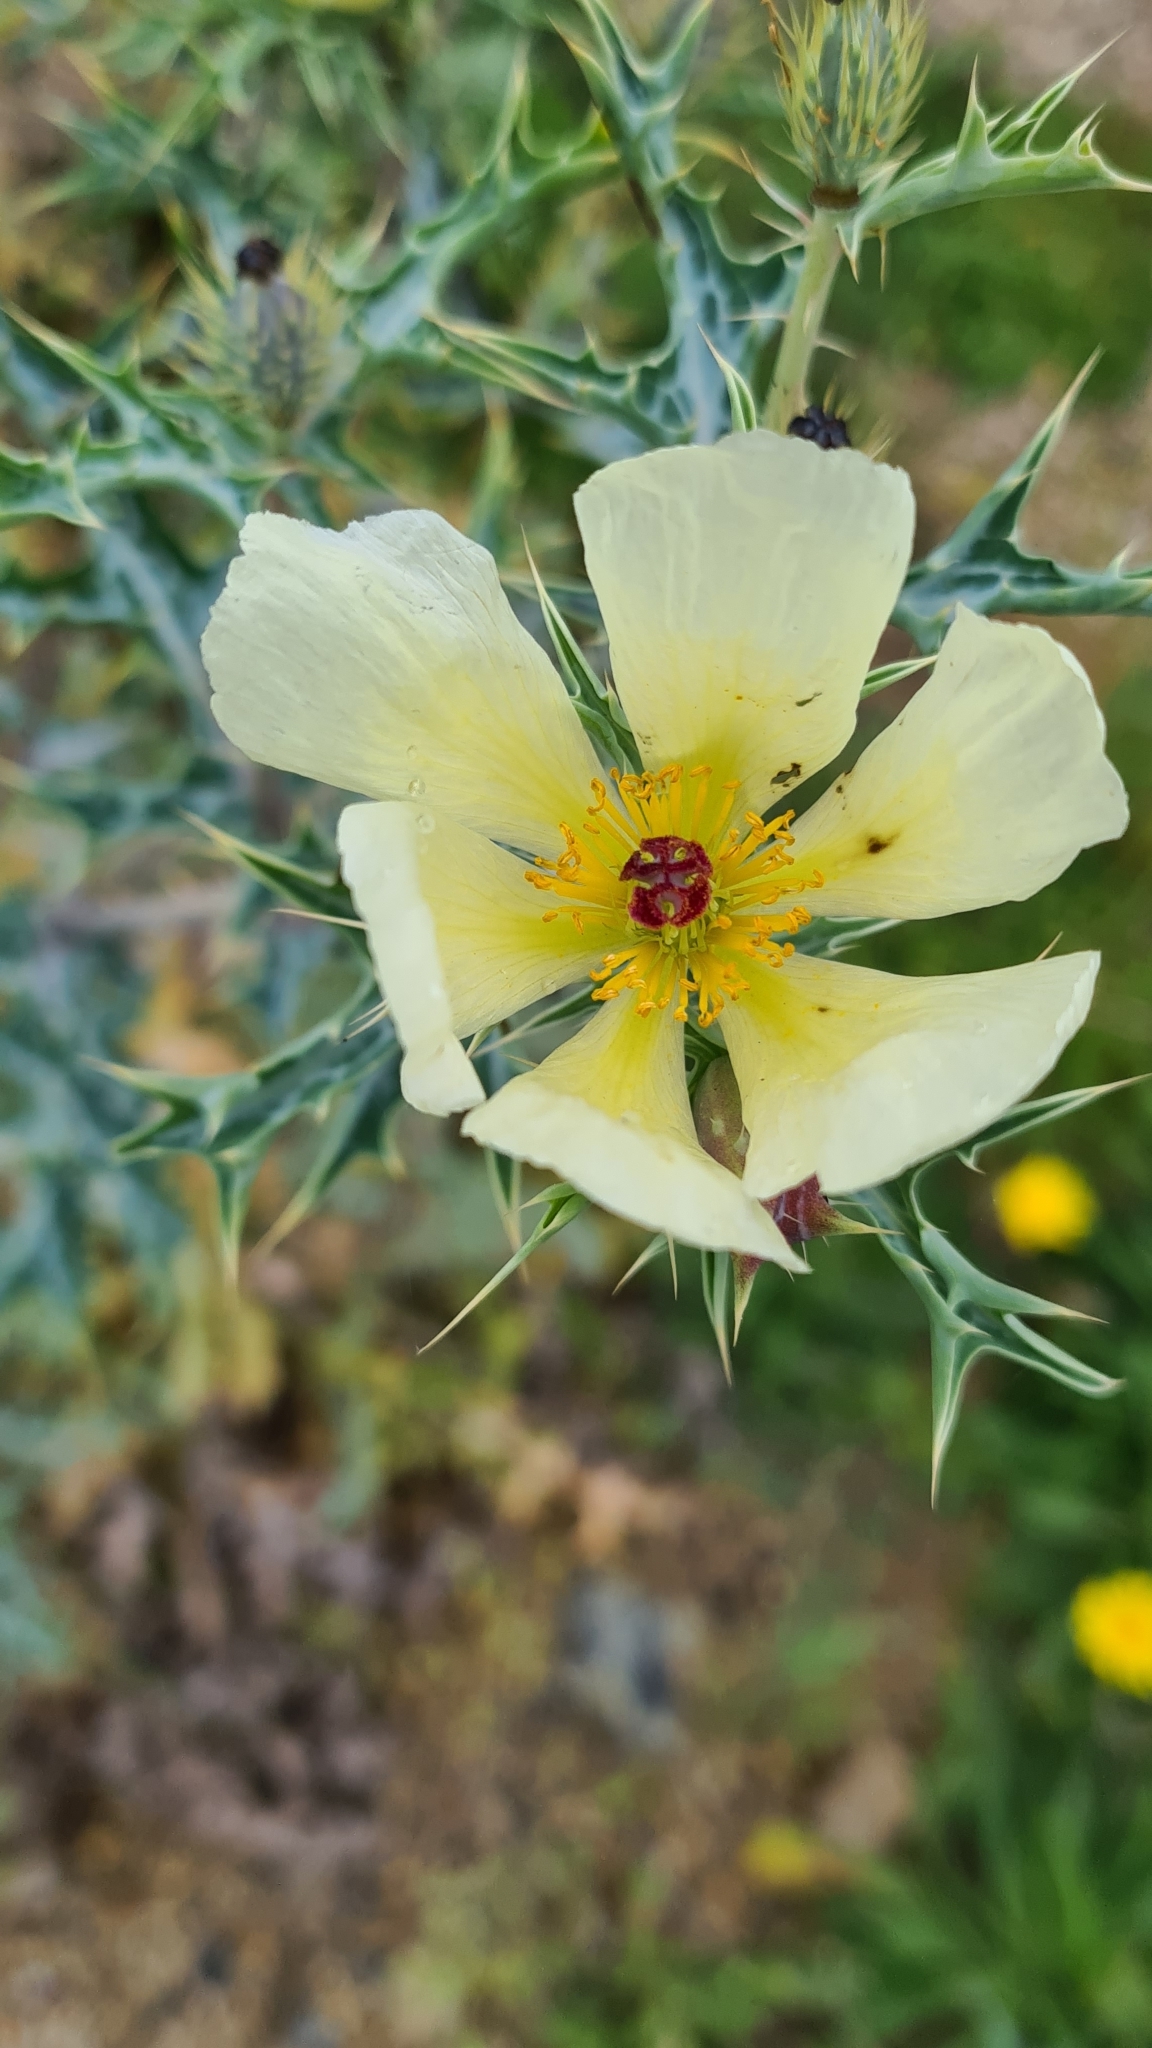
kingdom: Plantae
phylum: Tracheophyta
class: Magnoliopsida
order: Ranunculales
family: Papaveraceae
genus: Argemone
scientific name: Argemone ochroleuca
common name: White-flower mexican-poppy
